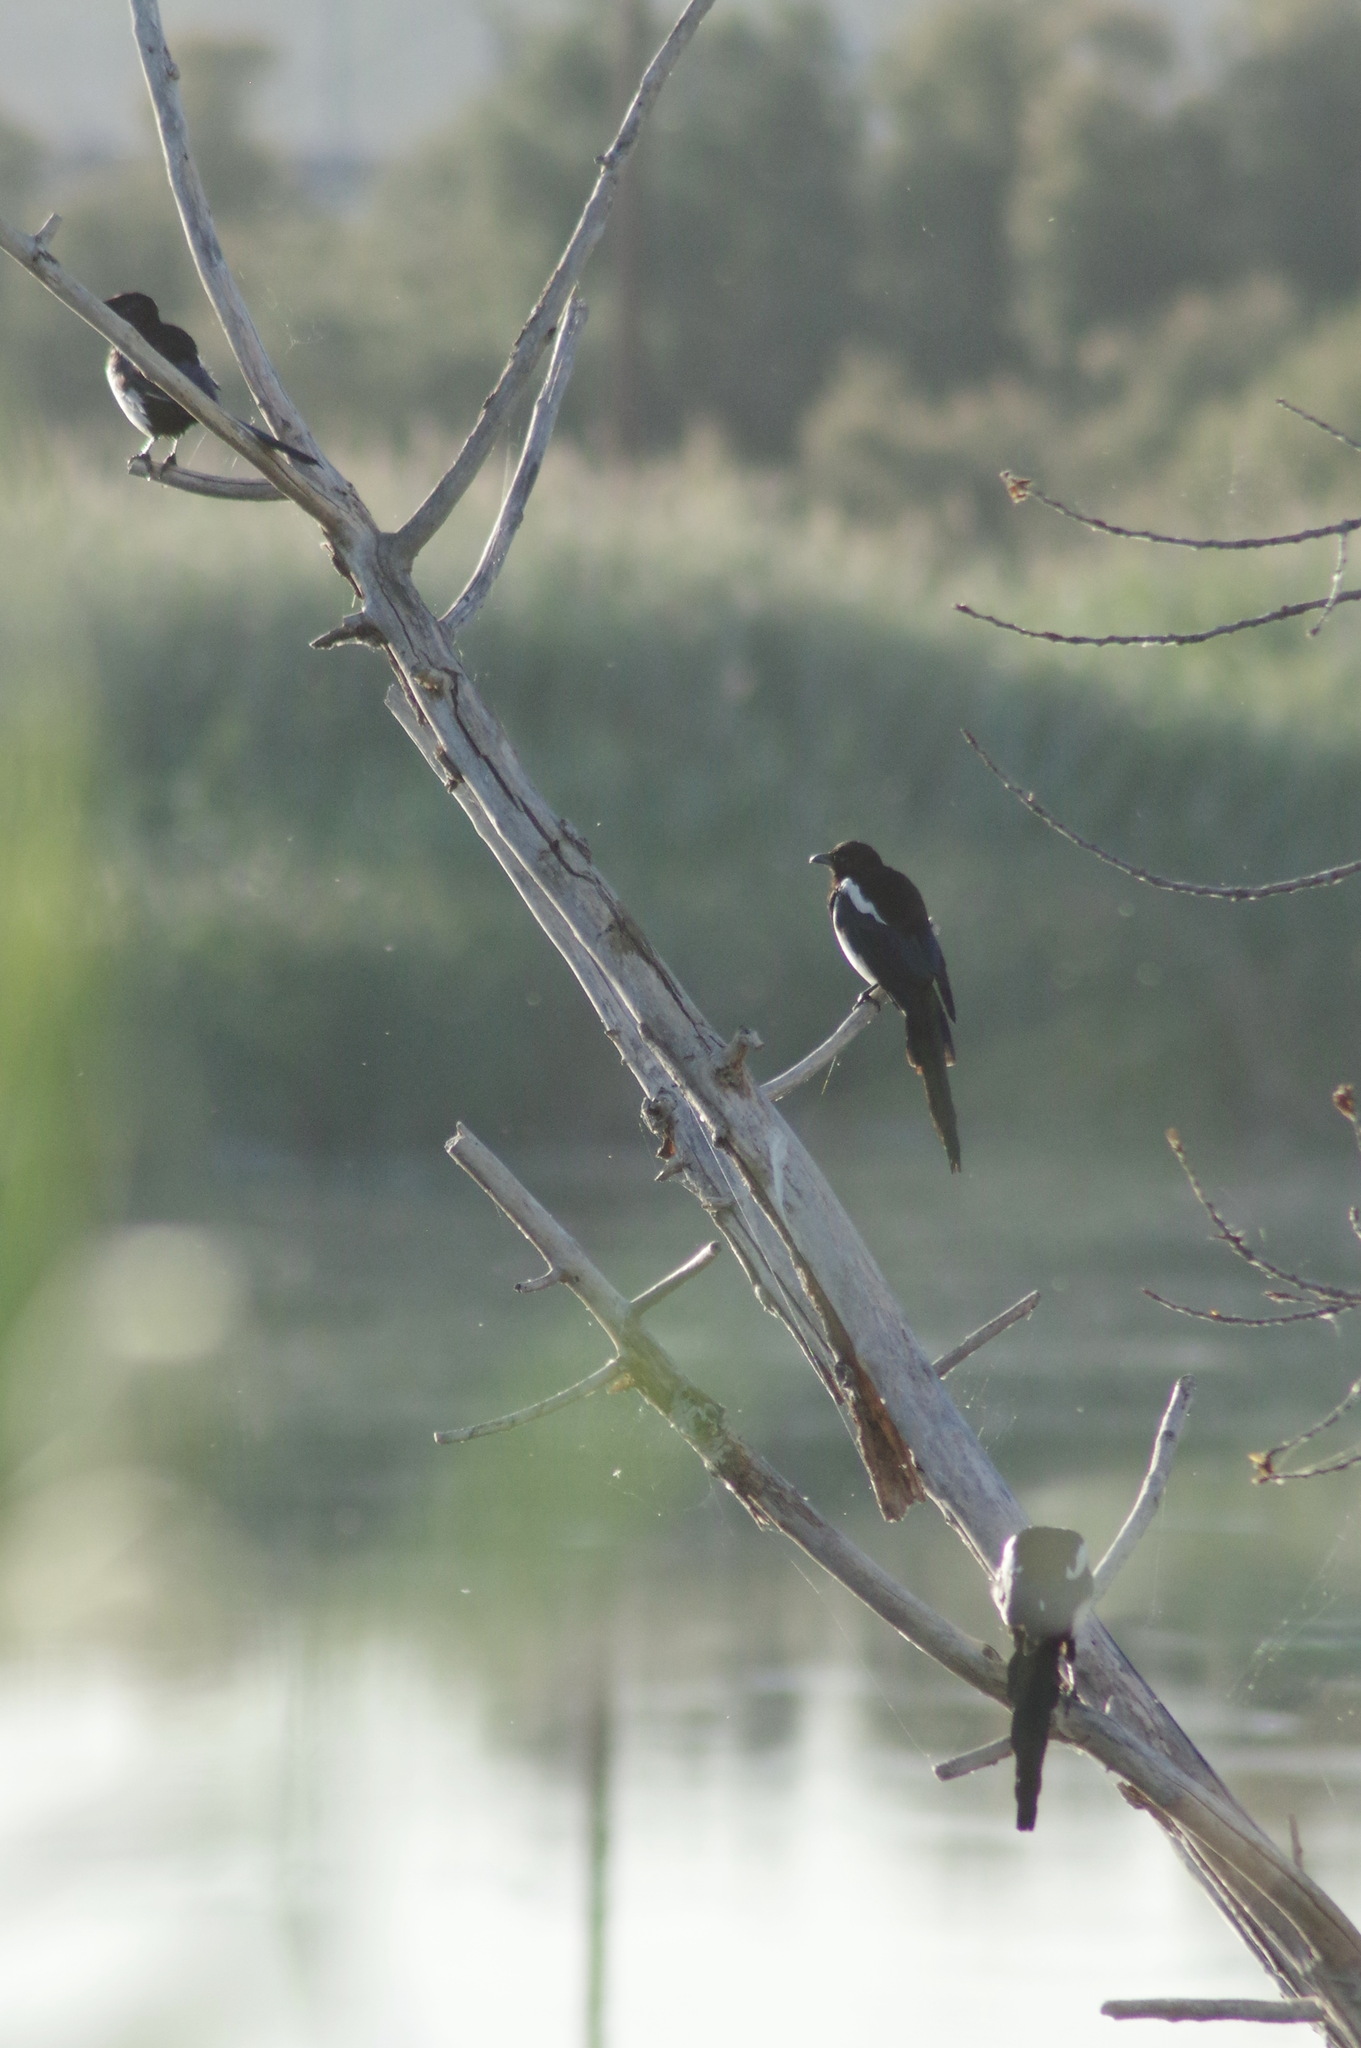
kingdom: Animalia
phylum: Chordata
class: Aves
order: Passeriformes
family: Corvidae
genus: Pica
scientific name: Pica pica
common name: Eurasian magpie
